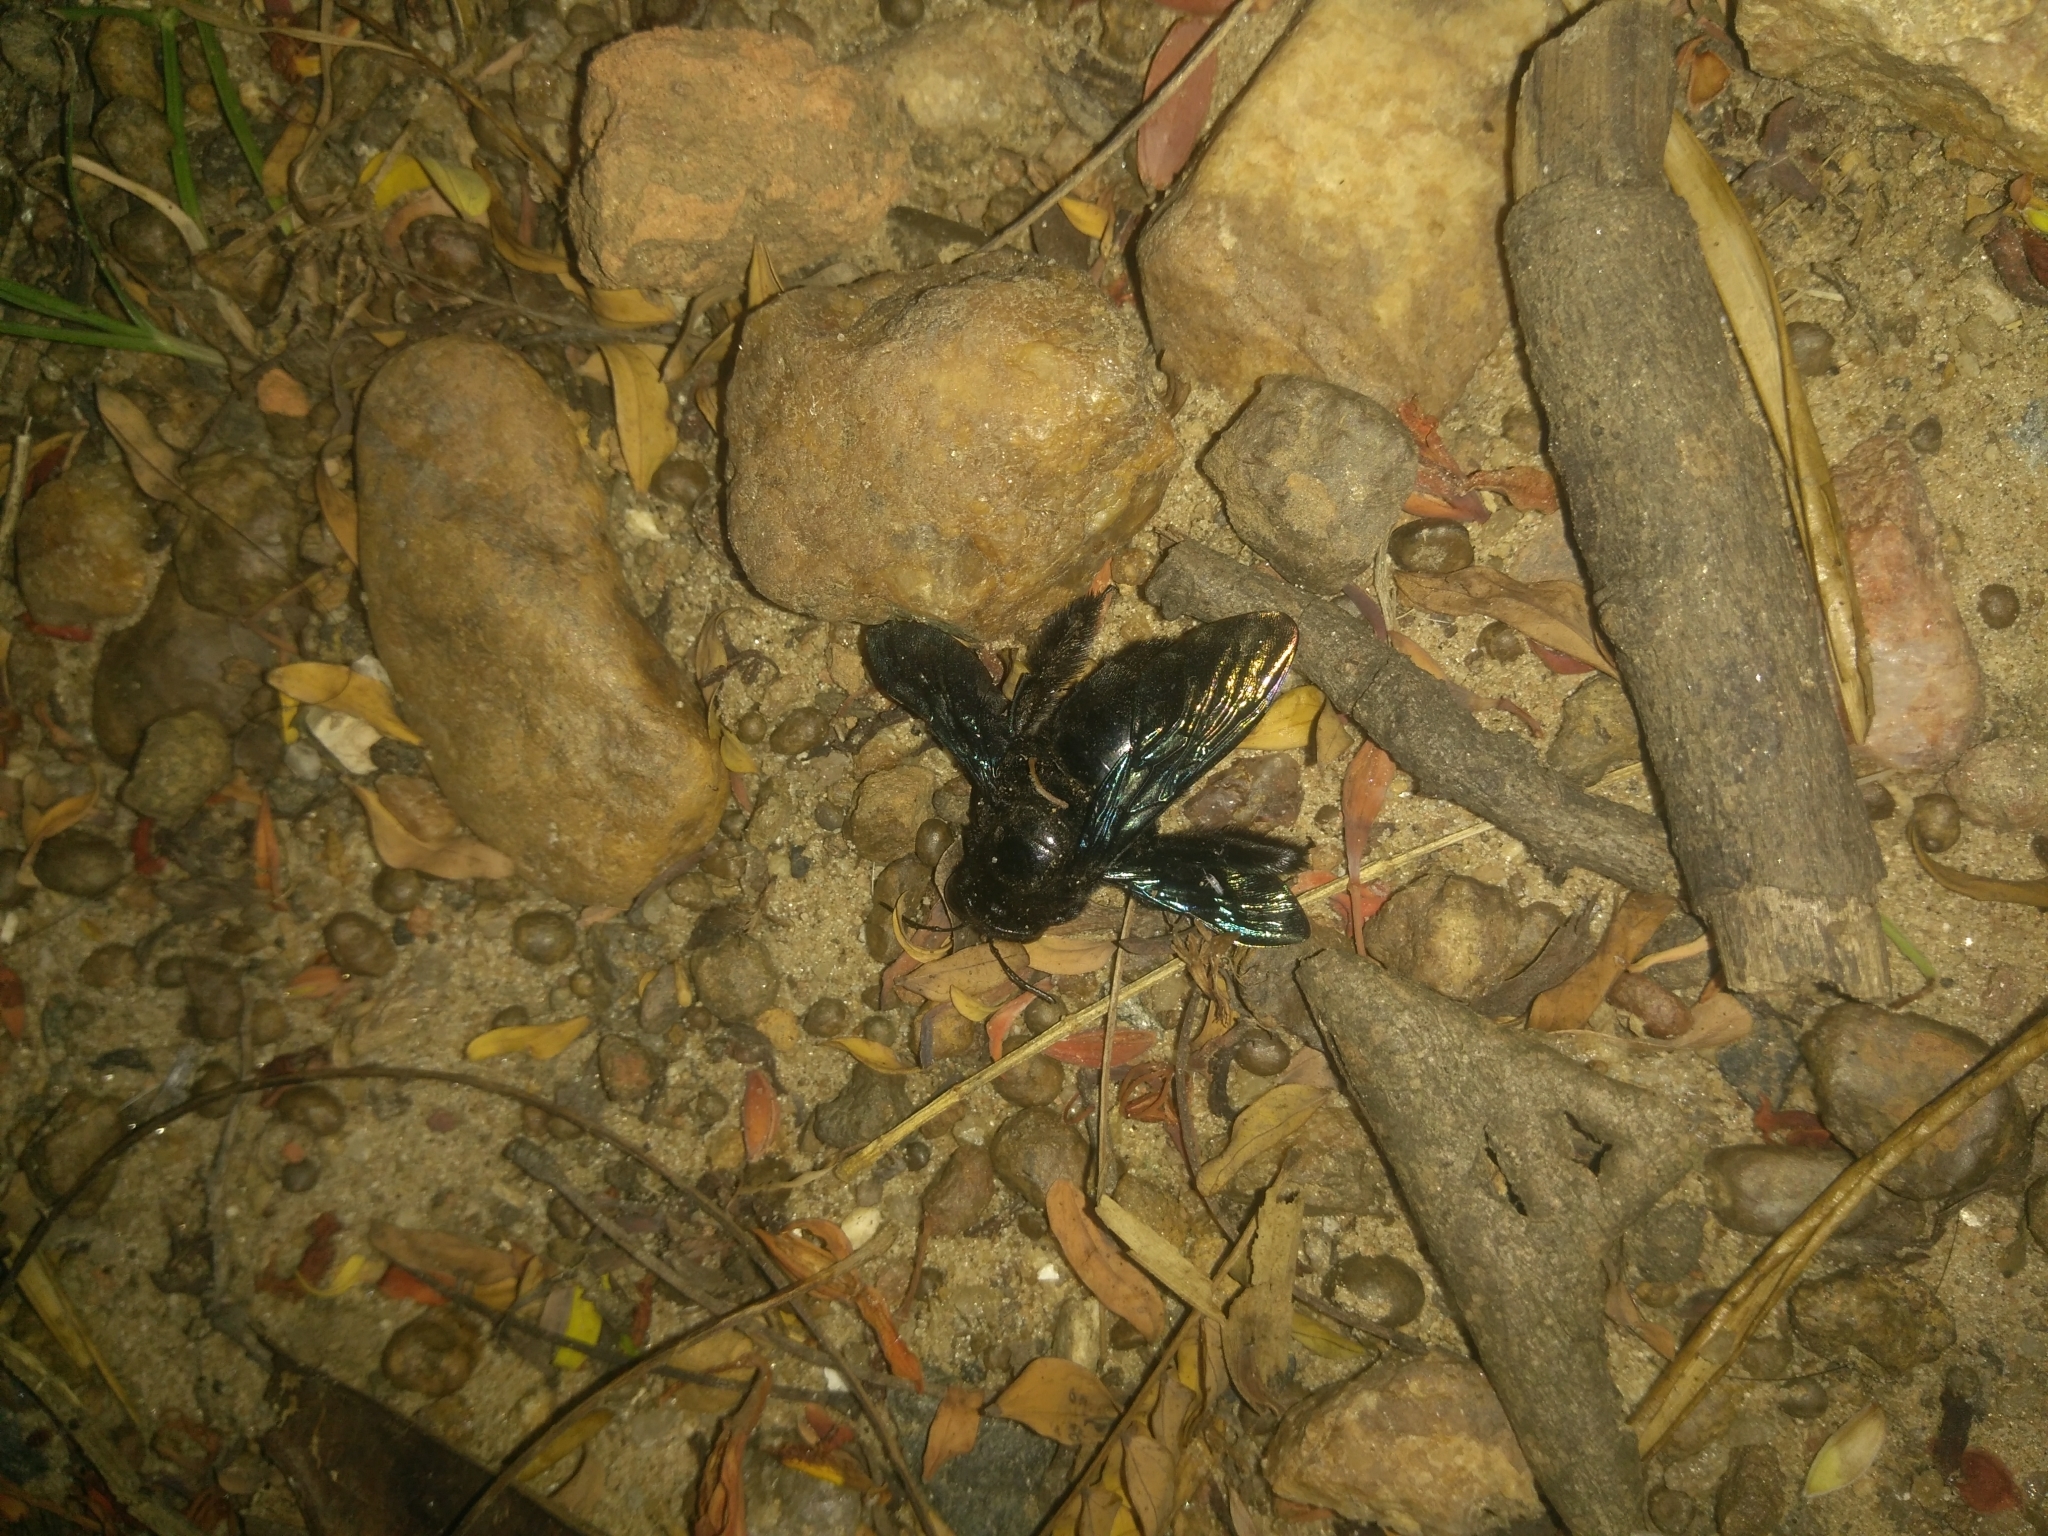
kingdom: Animalia
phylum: Arthropoda
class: Insecta
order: Hymenoptera
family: Apidae
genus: Xylocopa
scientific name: Xylocopa auripennis
